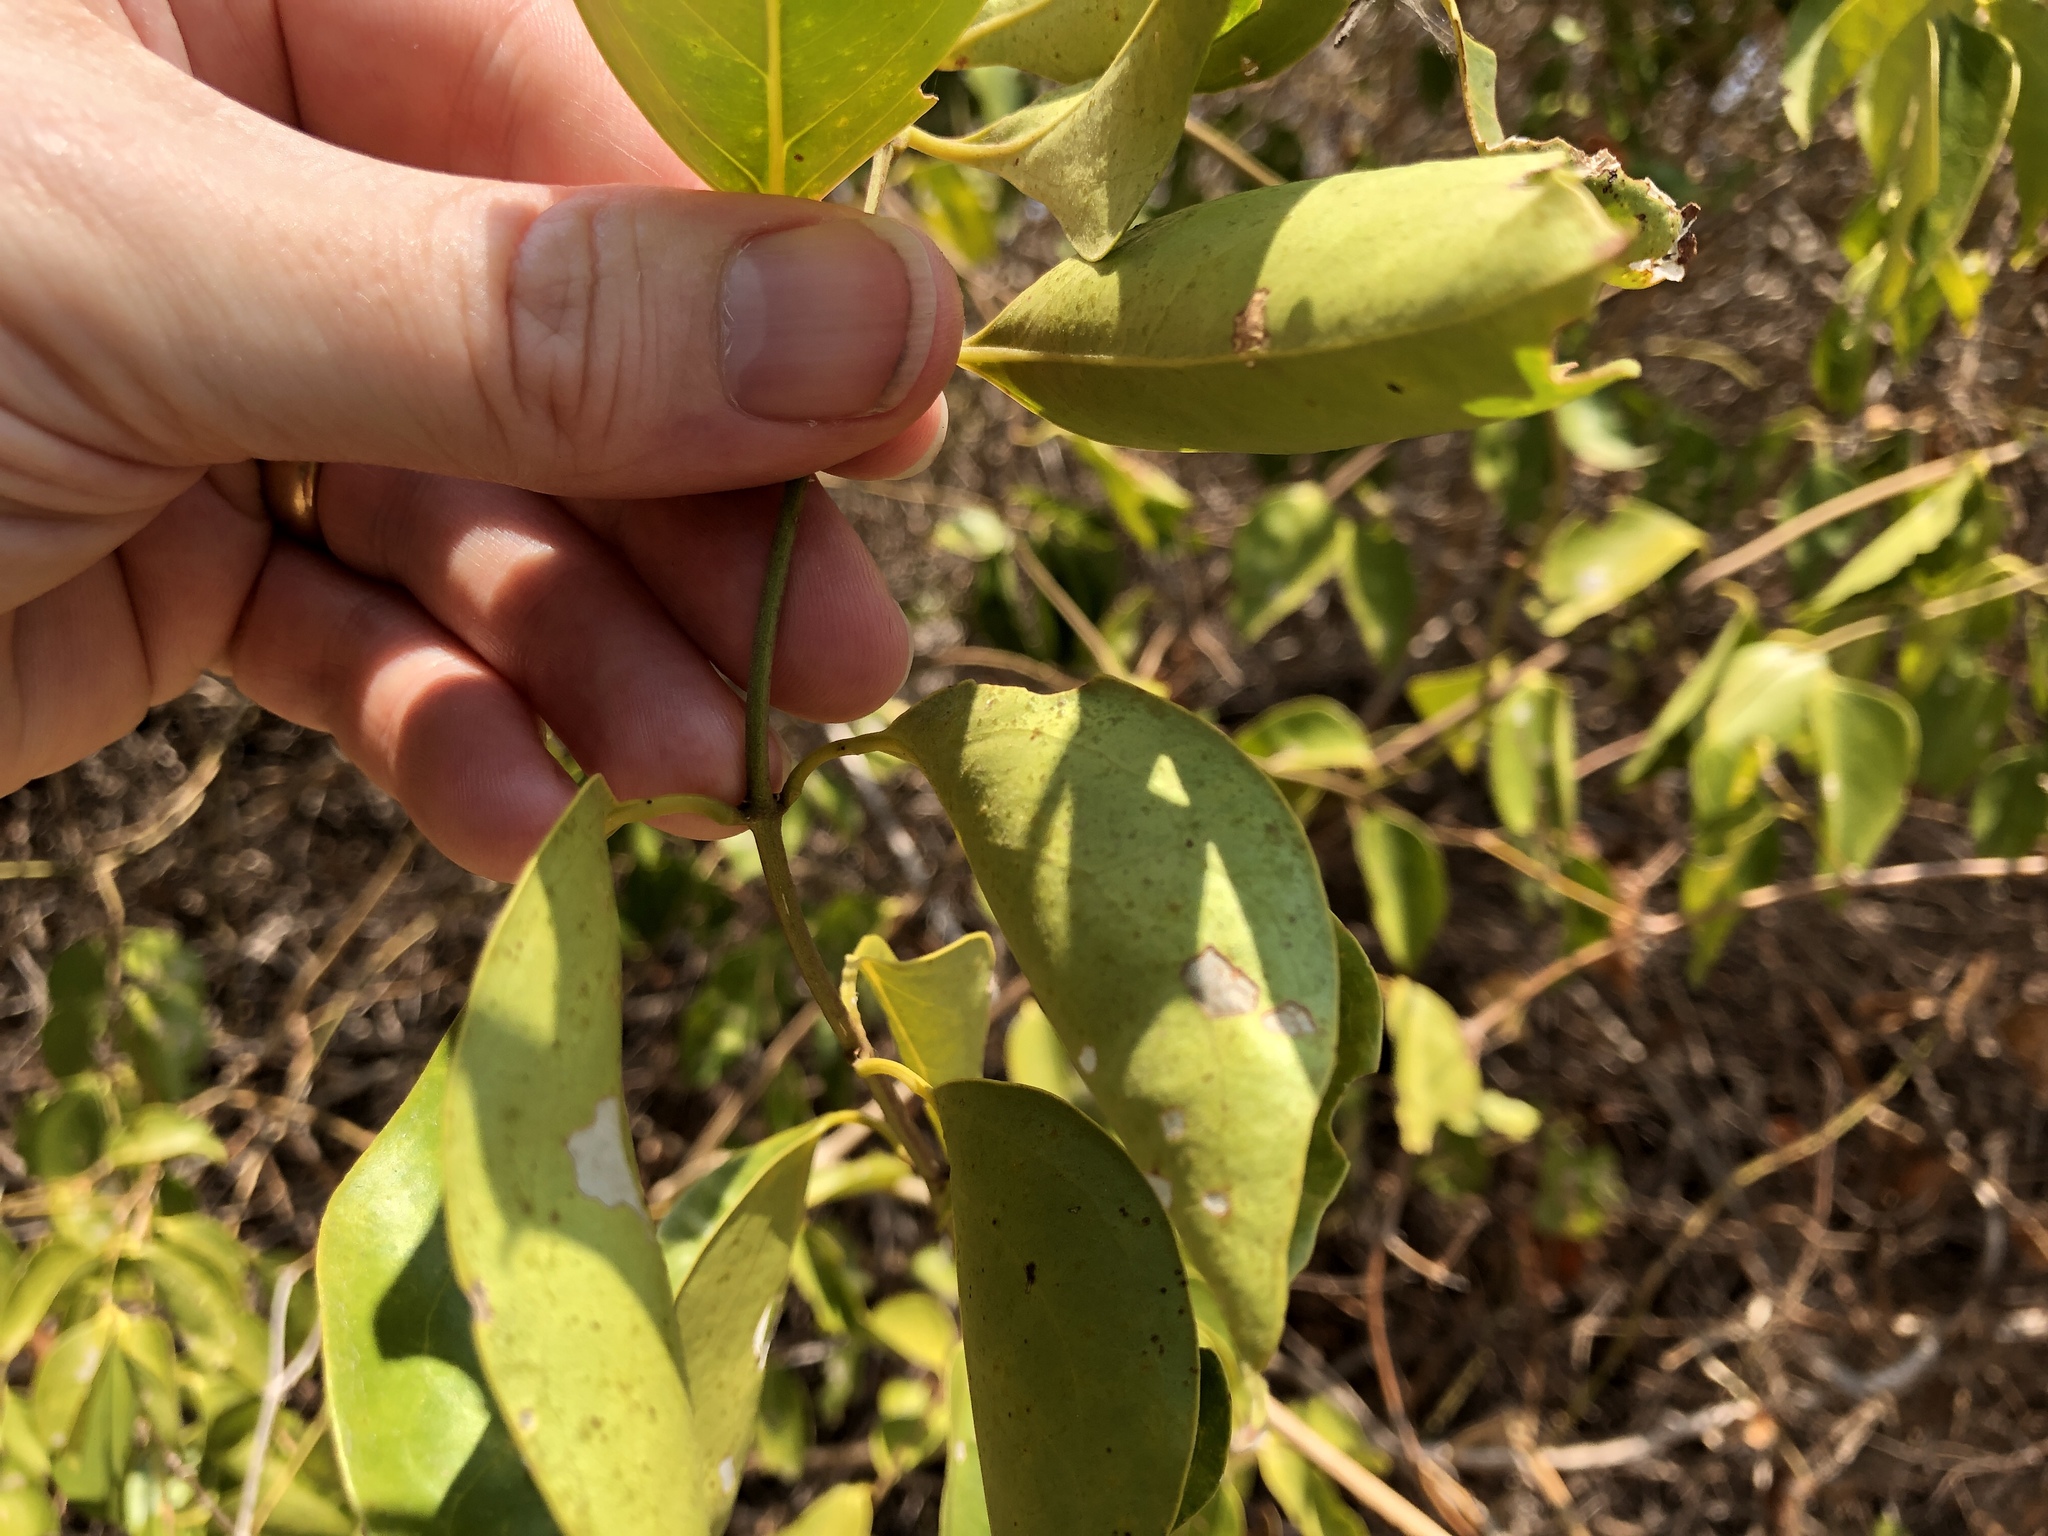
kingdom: Plantae
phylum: Tracheophyta
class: Magnoliopsida
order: Lamiales
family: Oleaceae
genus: Jasminum
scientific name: Jasminum simplicifolium
